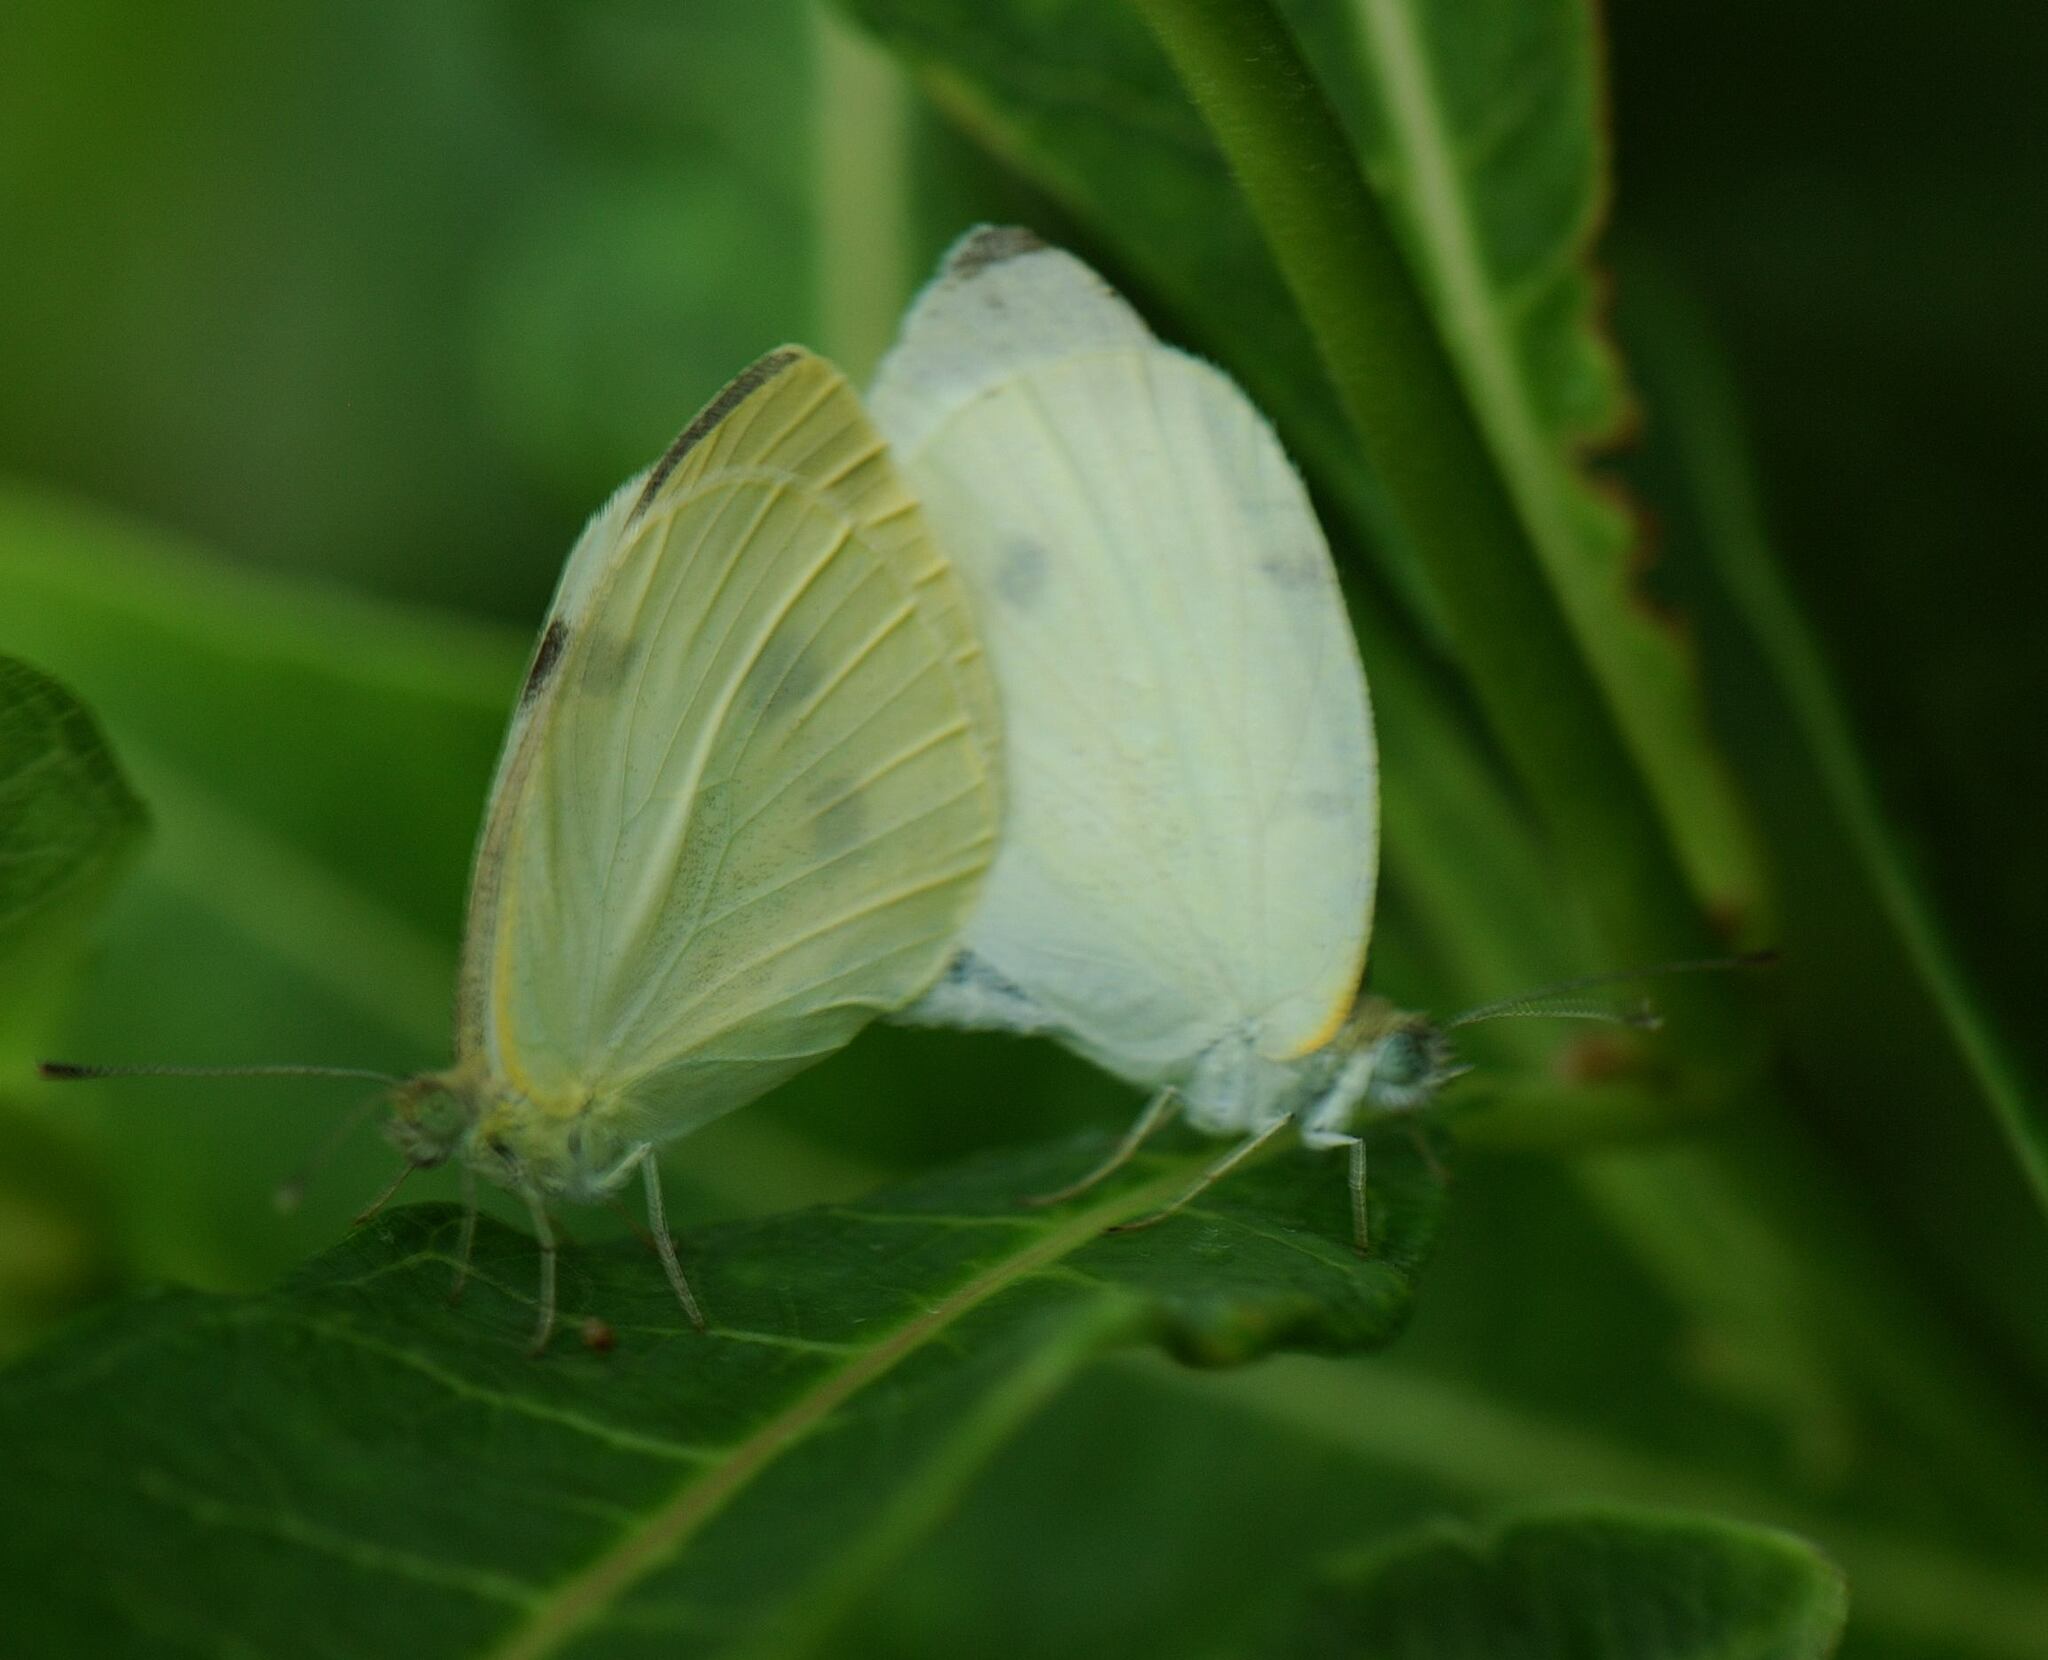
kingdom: Animalia
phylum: Arthropoda
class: Insecta
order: Lepidoptera
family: Pieridae
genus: Pieris
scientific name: Pieris rapae
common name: Small white
